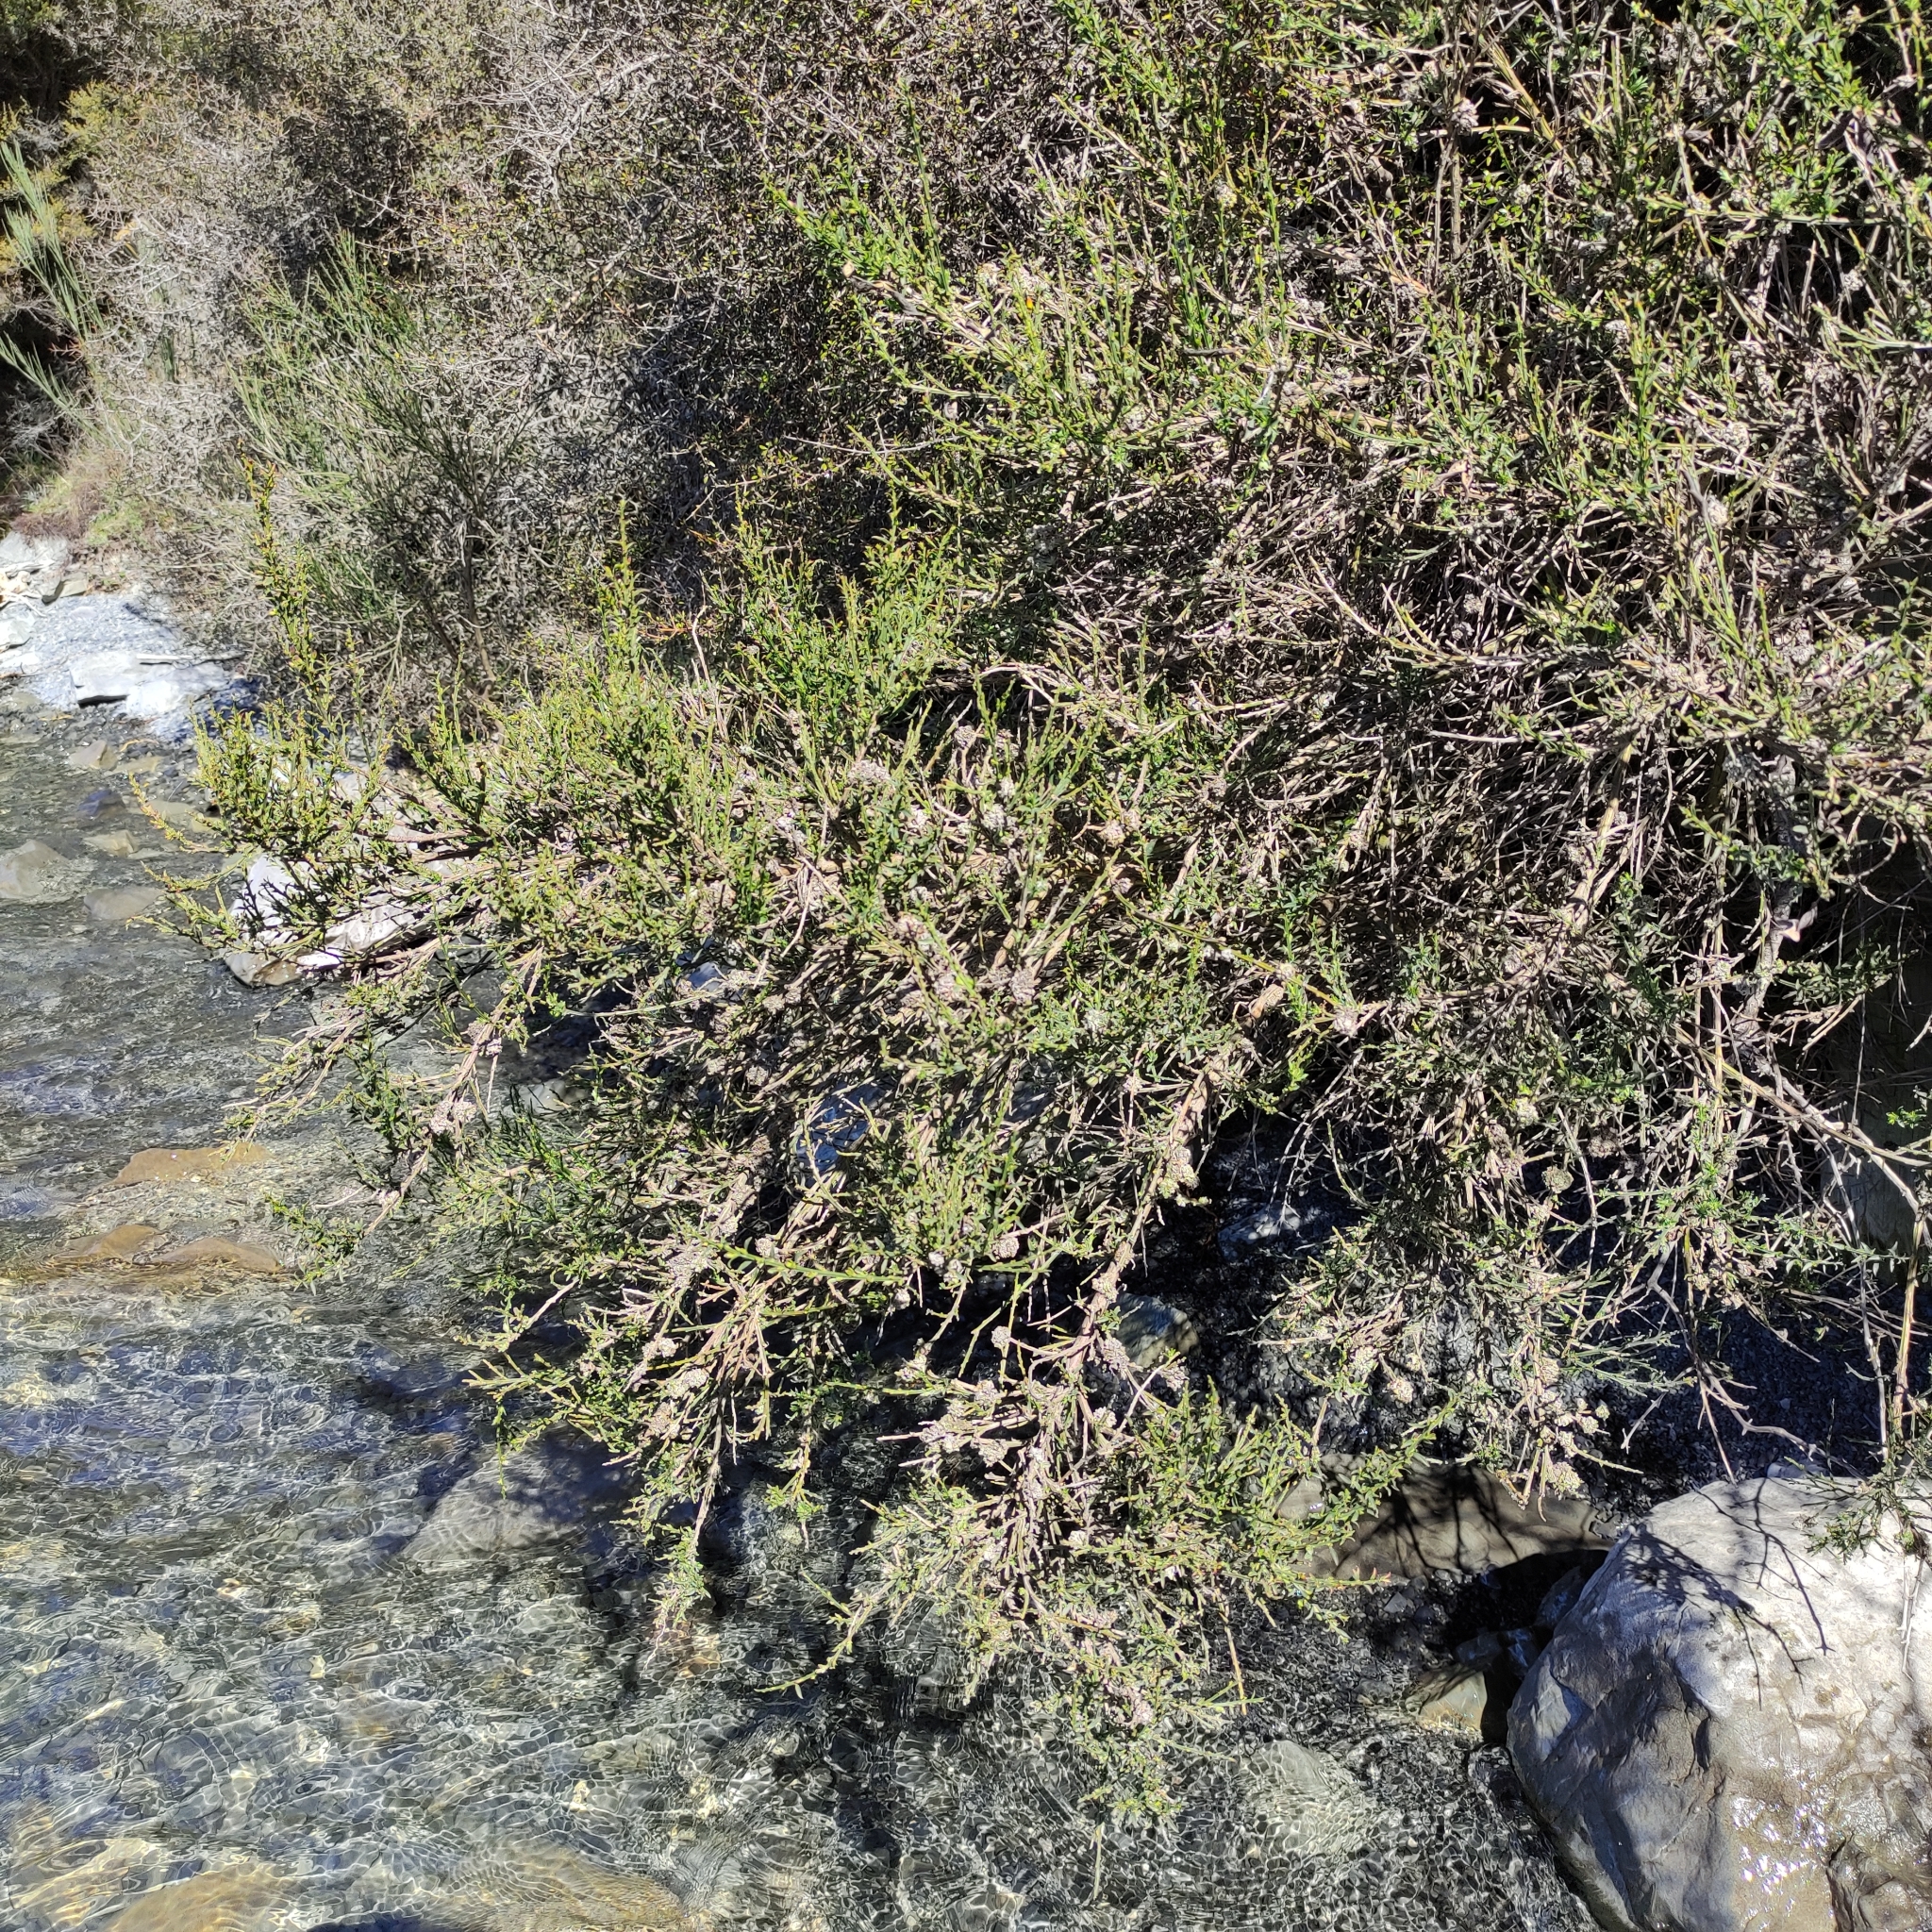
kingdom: Plantae
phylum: Tracheophyta
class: Magnoliopsida
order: Fabales
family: Fabaceae
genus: Cytisus
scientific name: Cytisus scoparius
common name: Scotch broom
